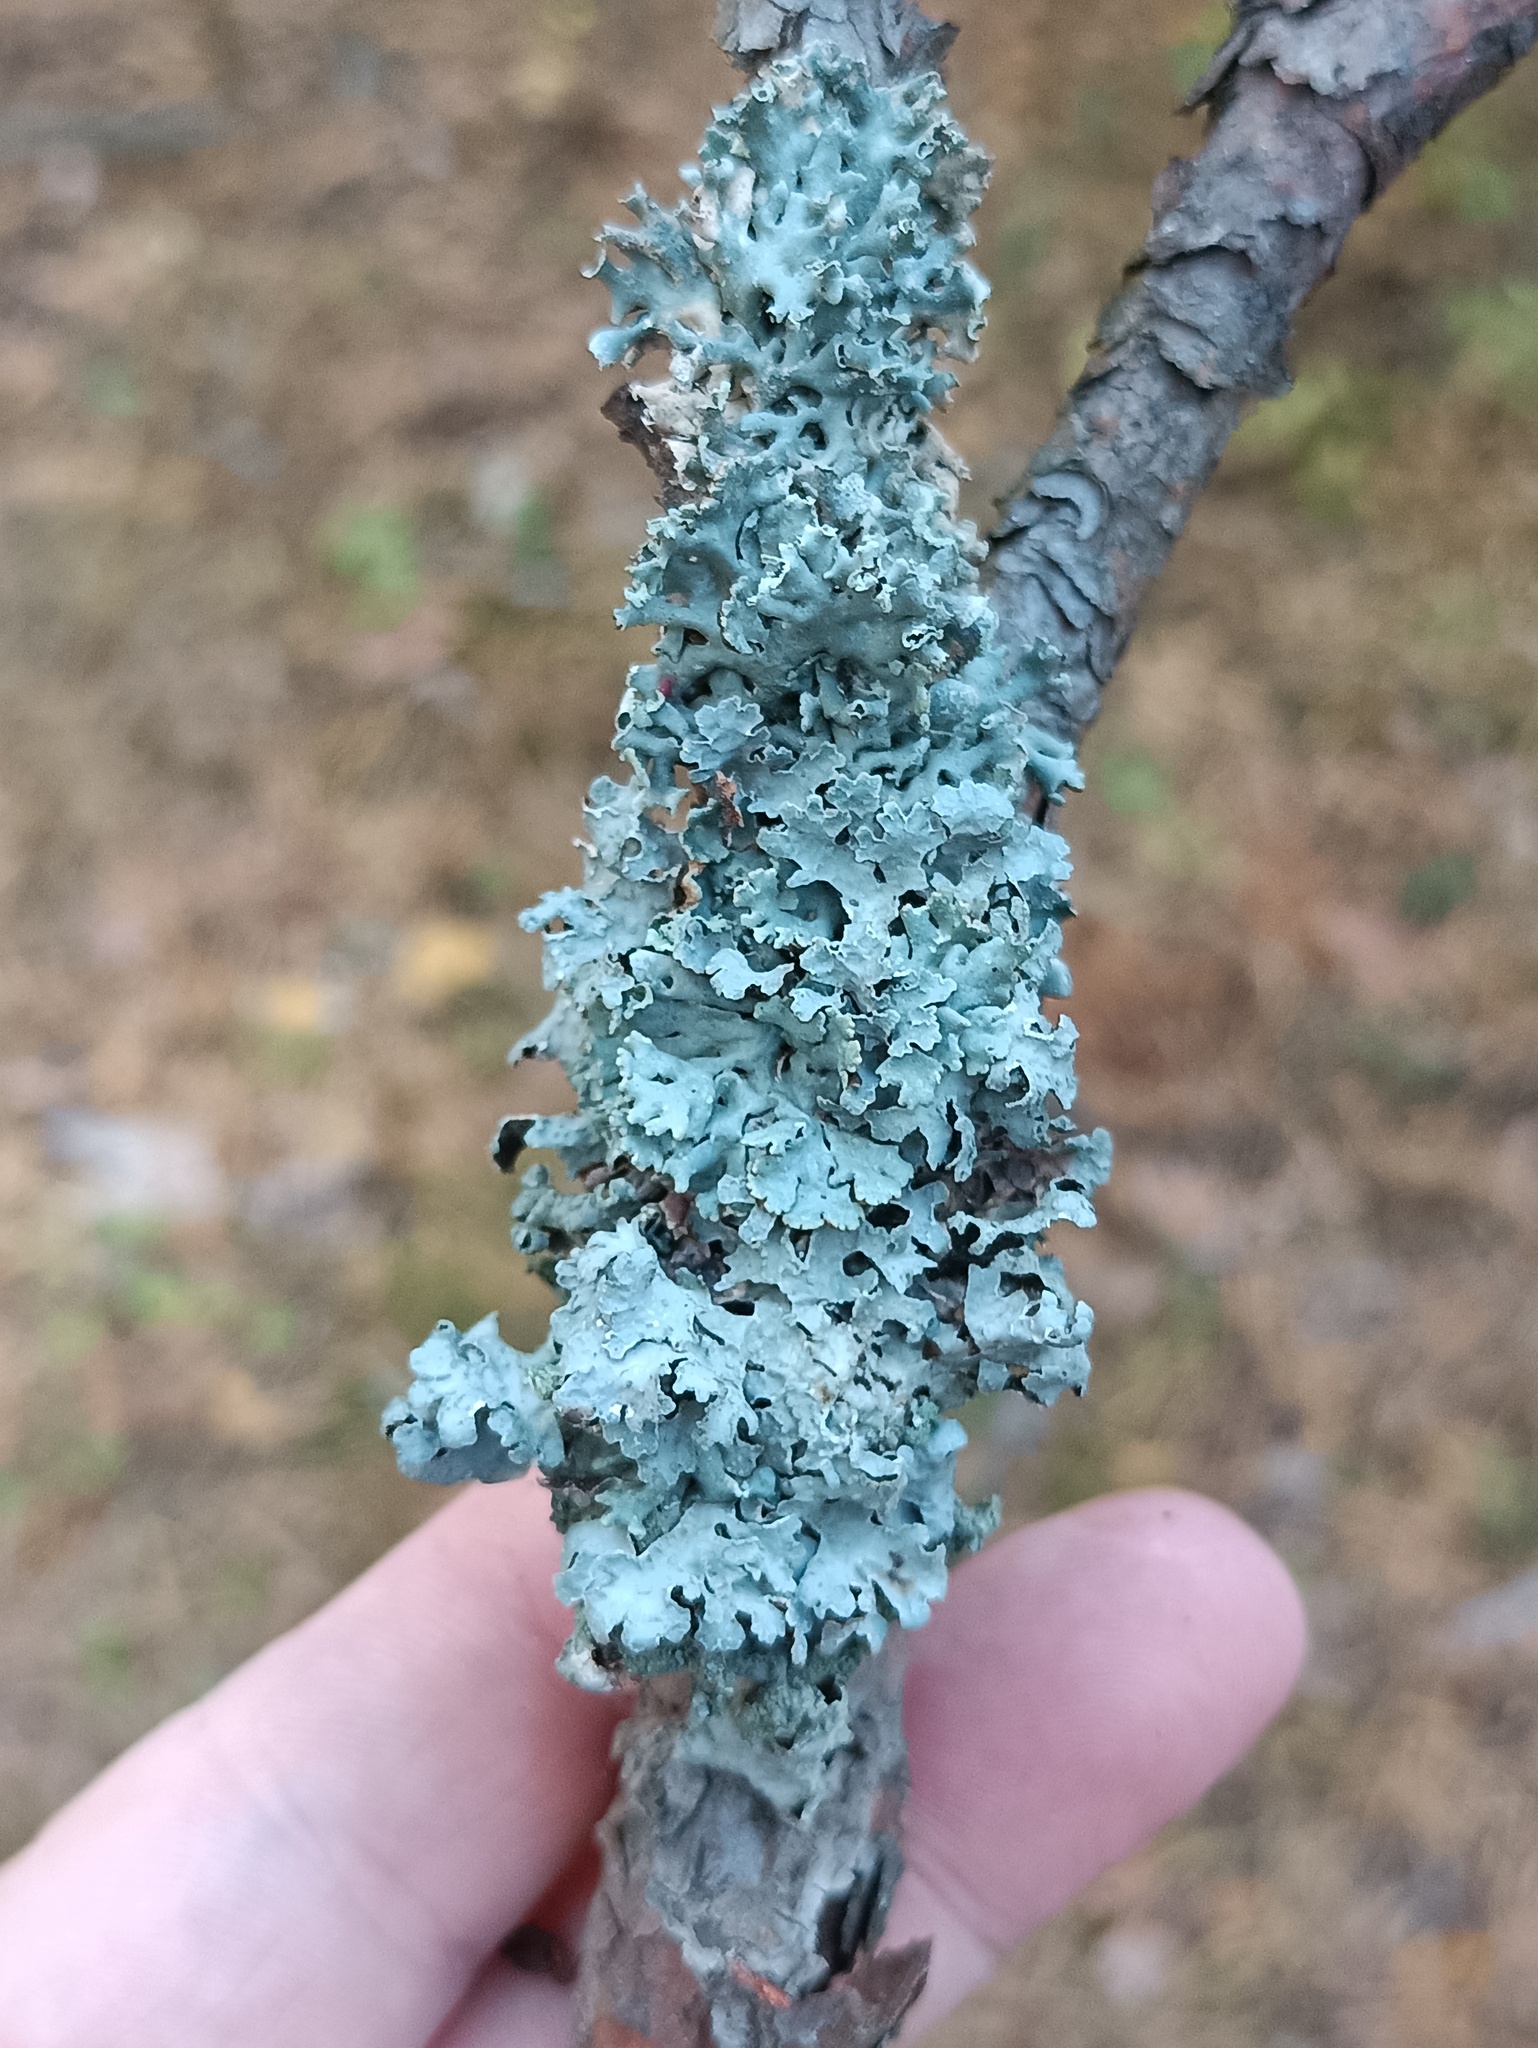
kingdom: Fungi
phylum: Ascomycota
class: Lecanoromycetes
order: Lecanorales
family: Parmeliaceae
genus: Hypogymnia
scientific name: Hypogymnia physodes
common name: Dark crottle
